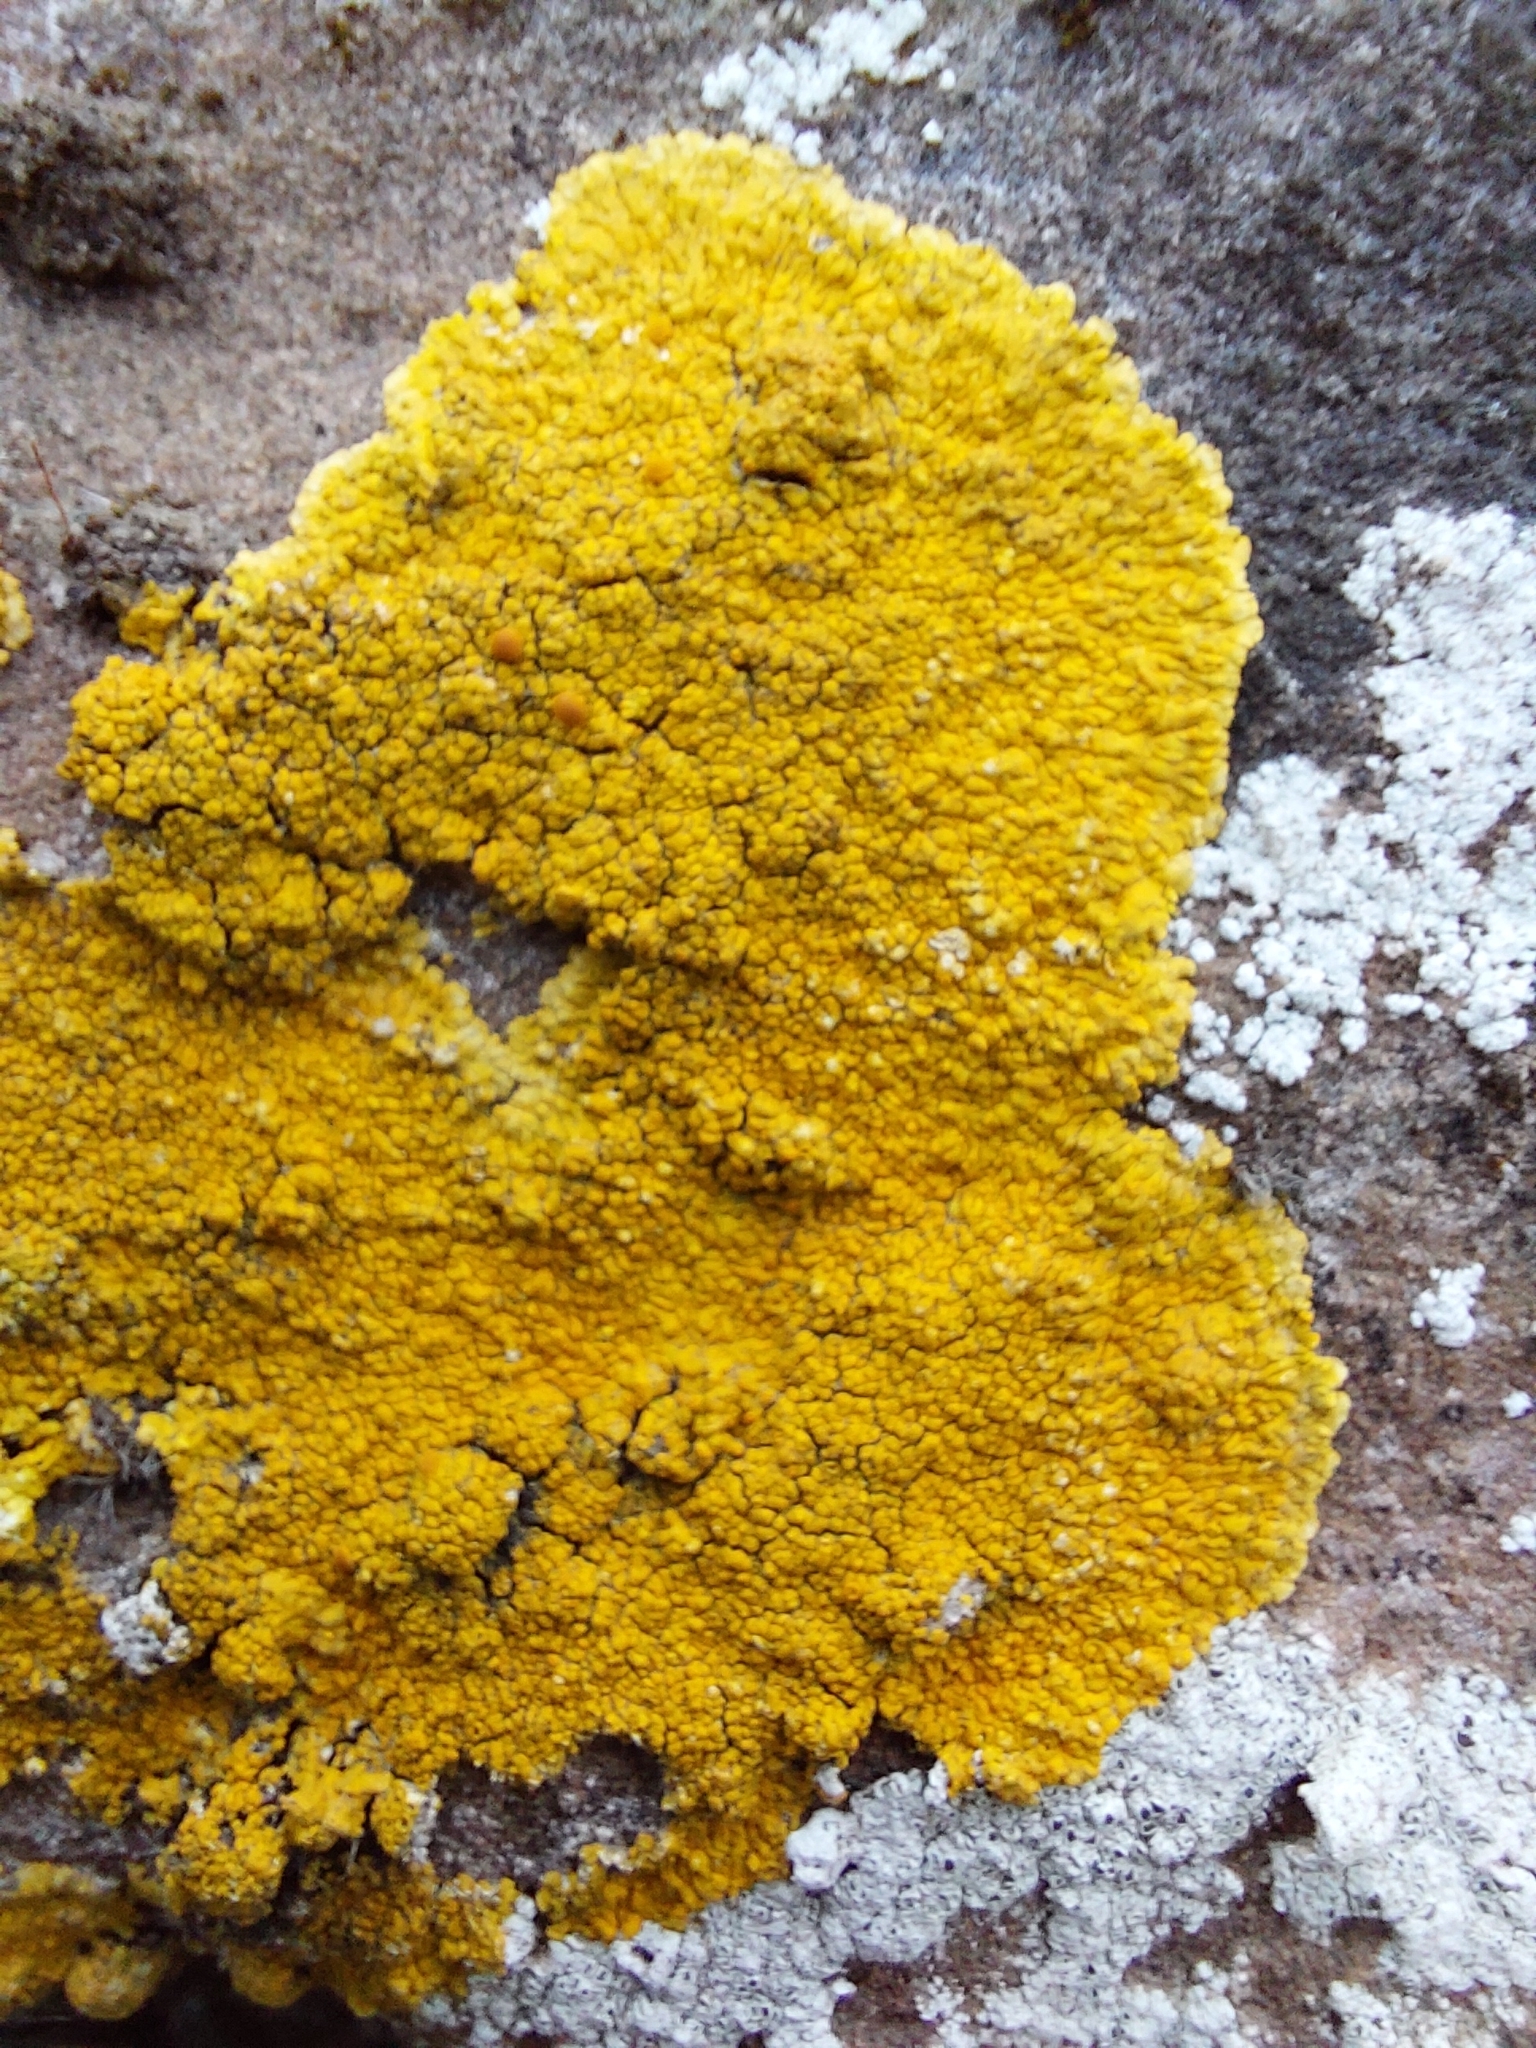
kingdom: Fungi
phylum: Ascomycota
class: Lecanoromycetes
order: Teloschistales
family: Teloschistaceae
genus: Variospora
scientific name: Variospora flavescens
